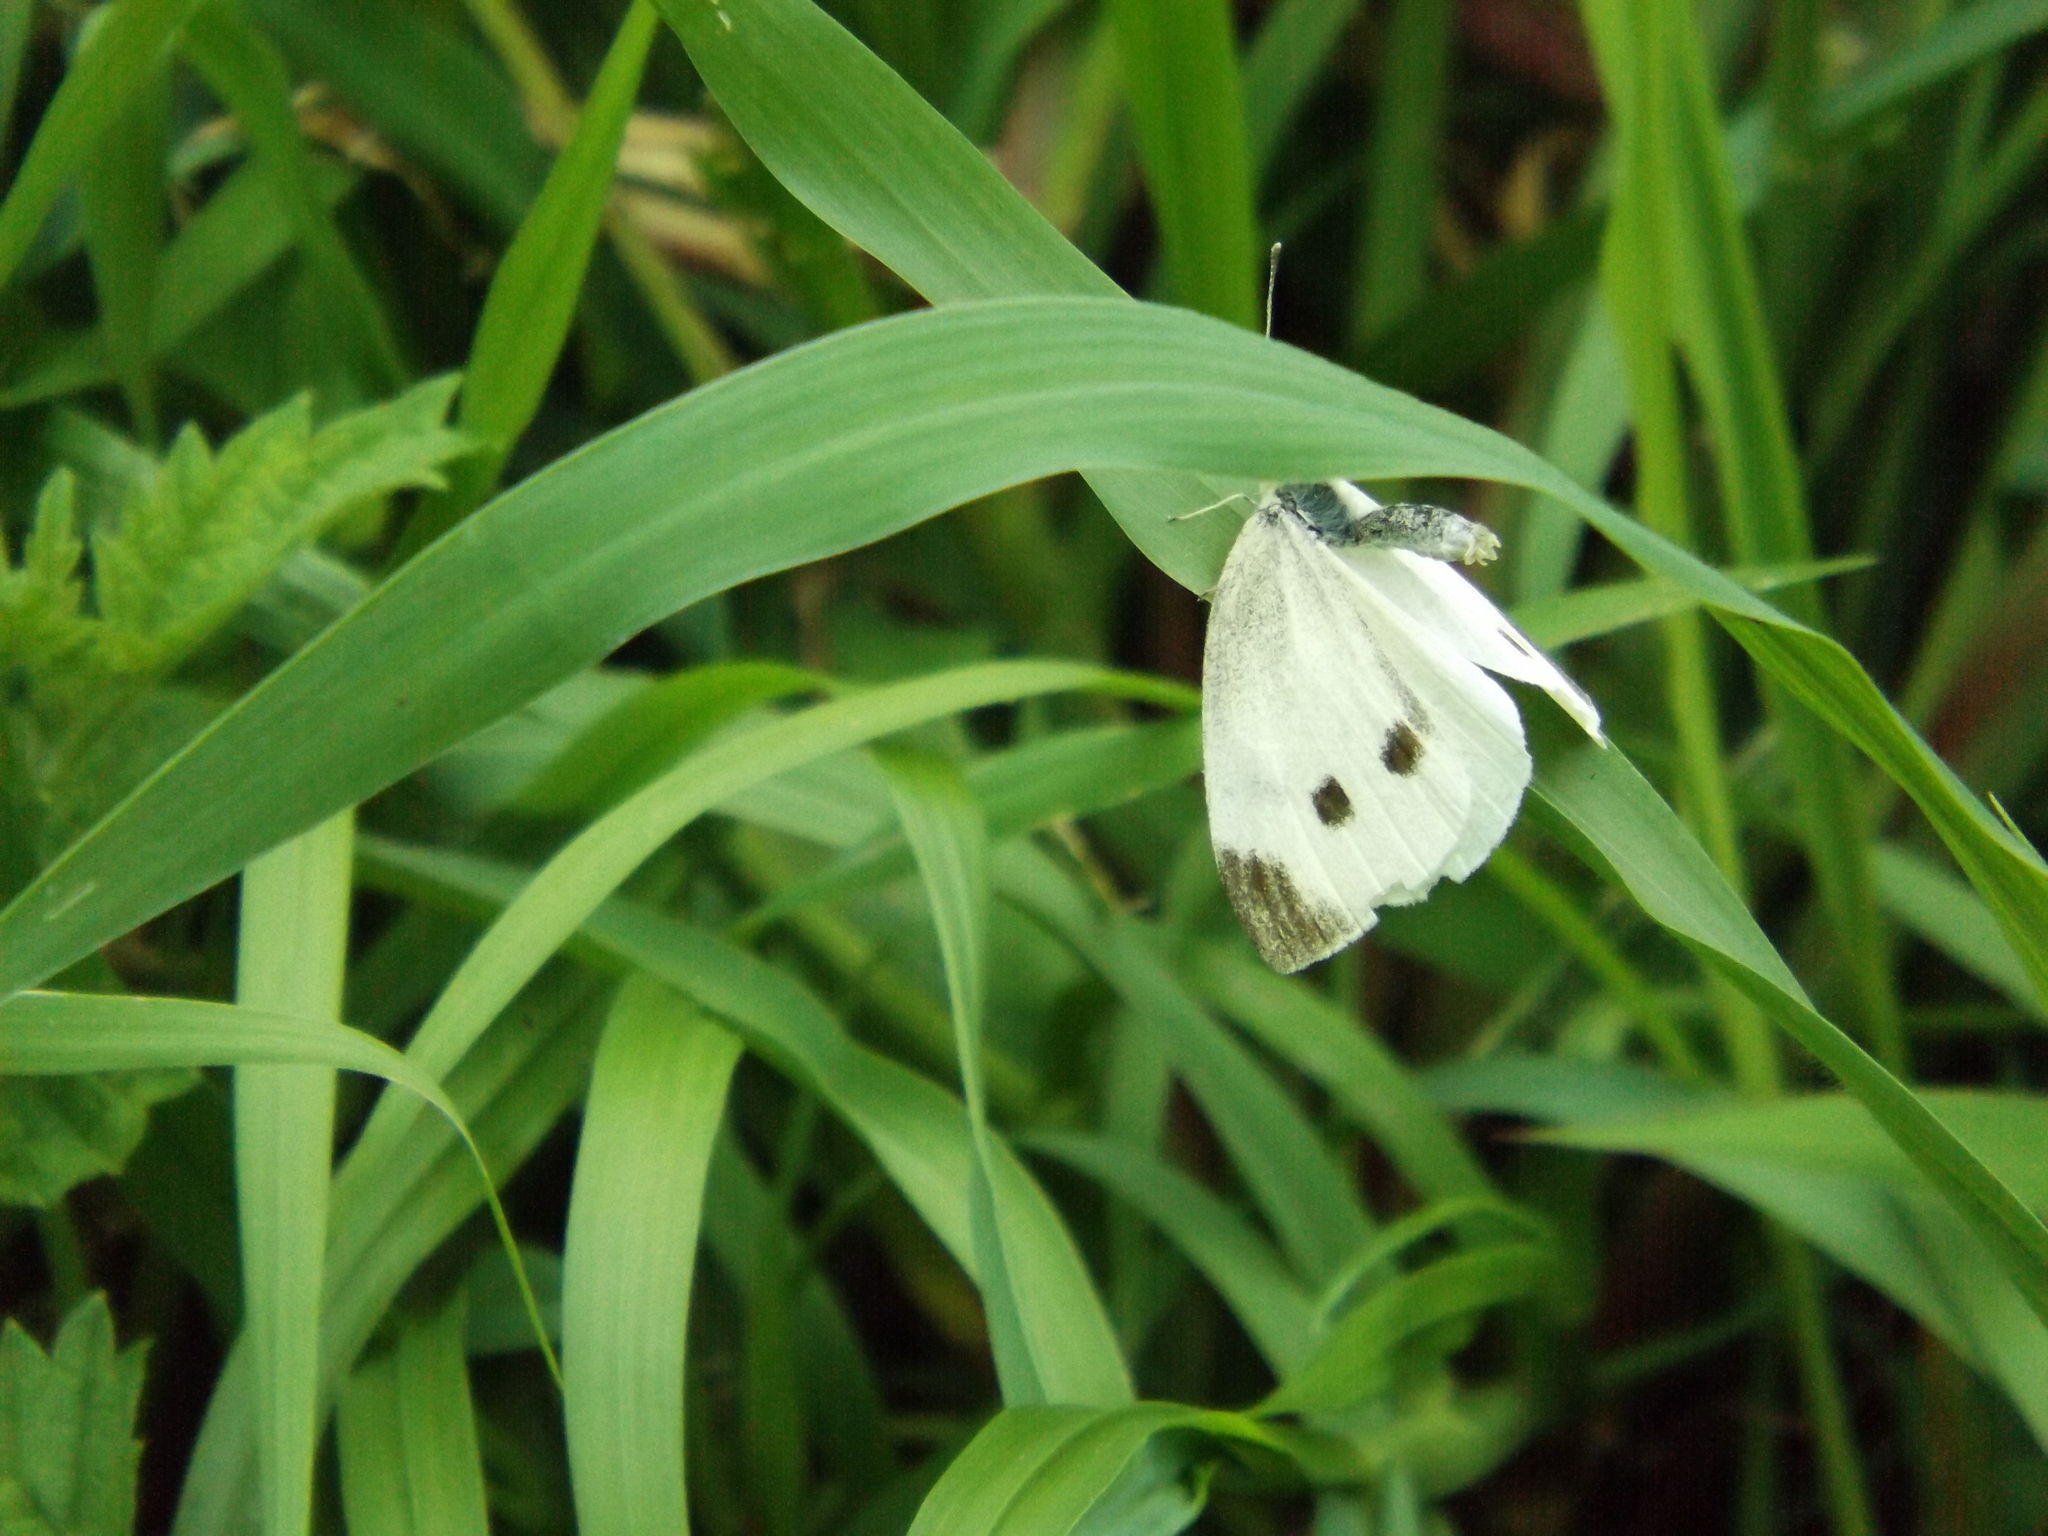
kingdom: Animalia
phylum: Arthropoda
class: Insecta
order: Lepidoptera
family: Pieridae
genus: Pieris
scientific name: Pieris rapae
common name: Small white
